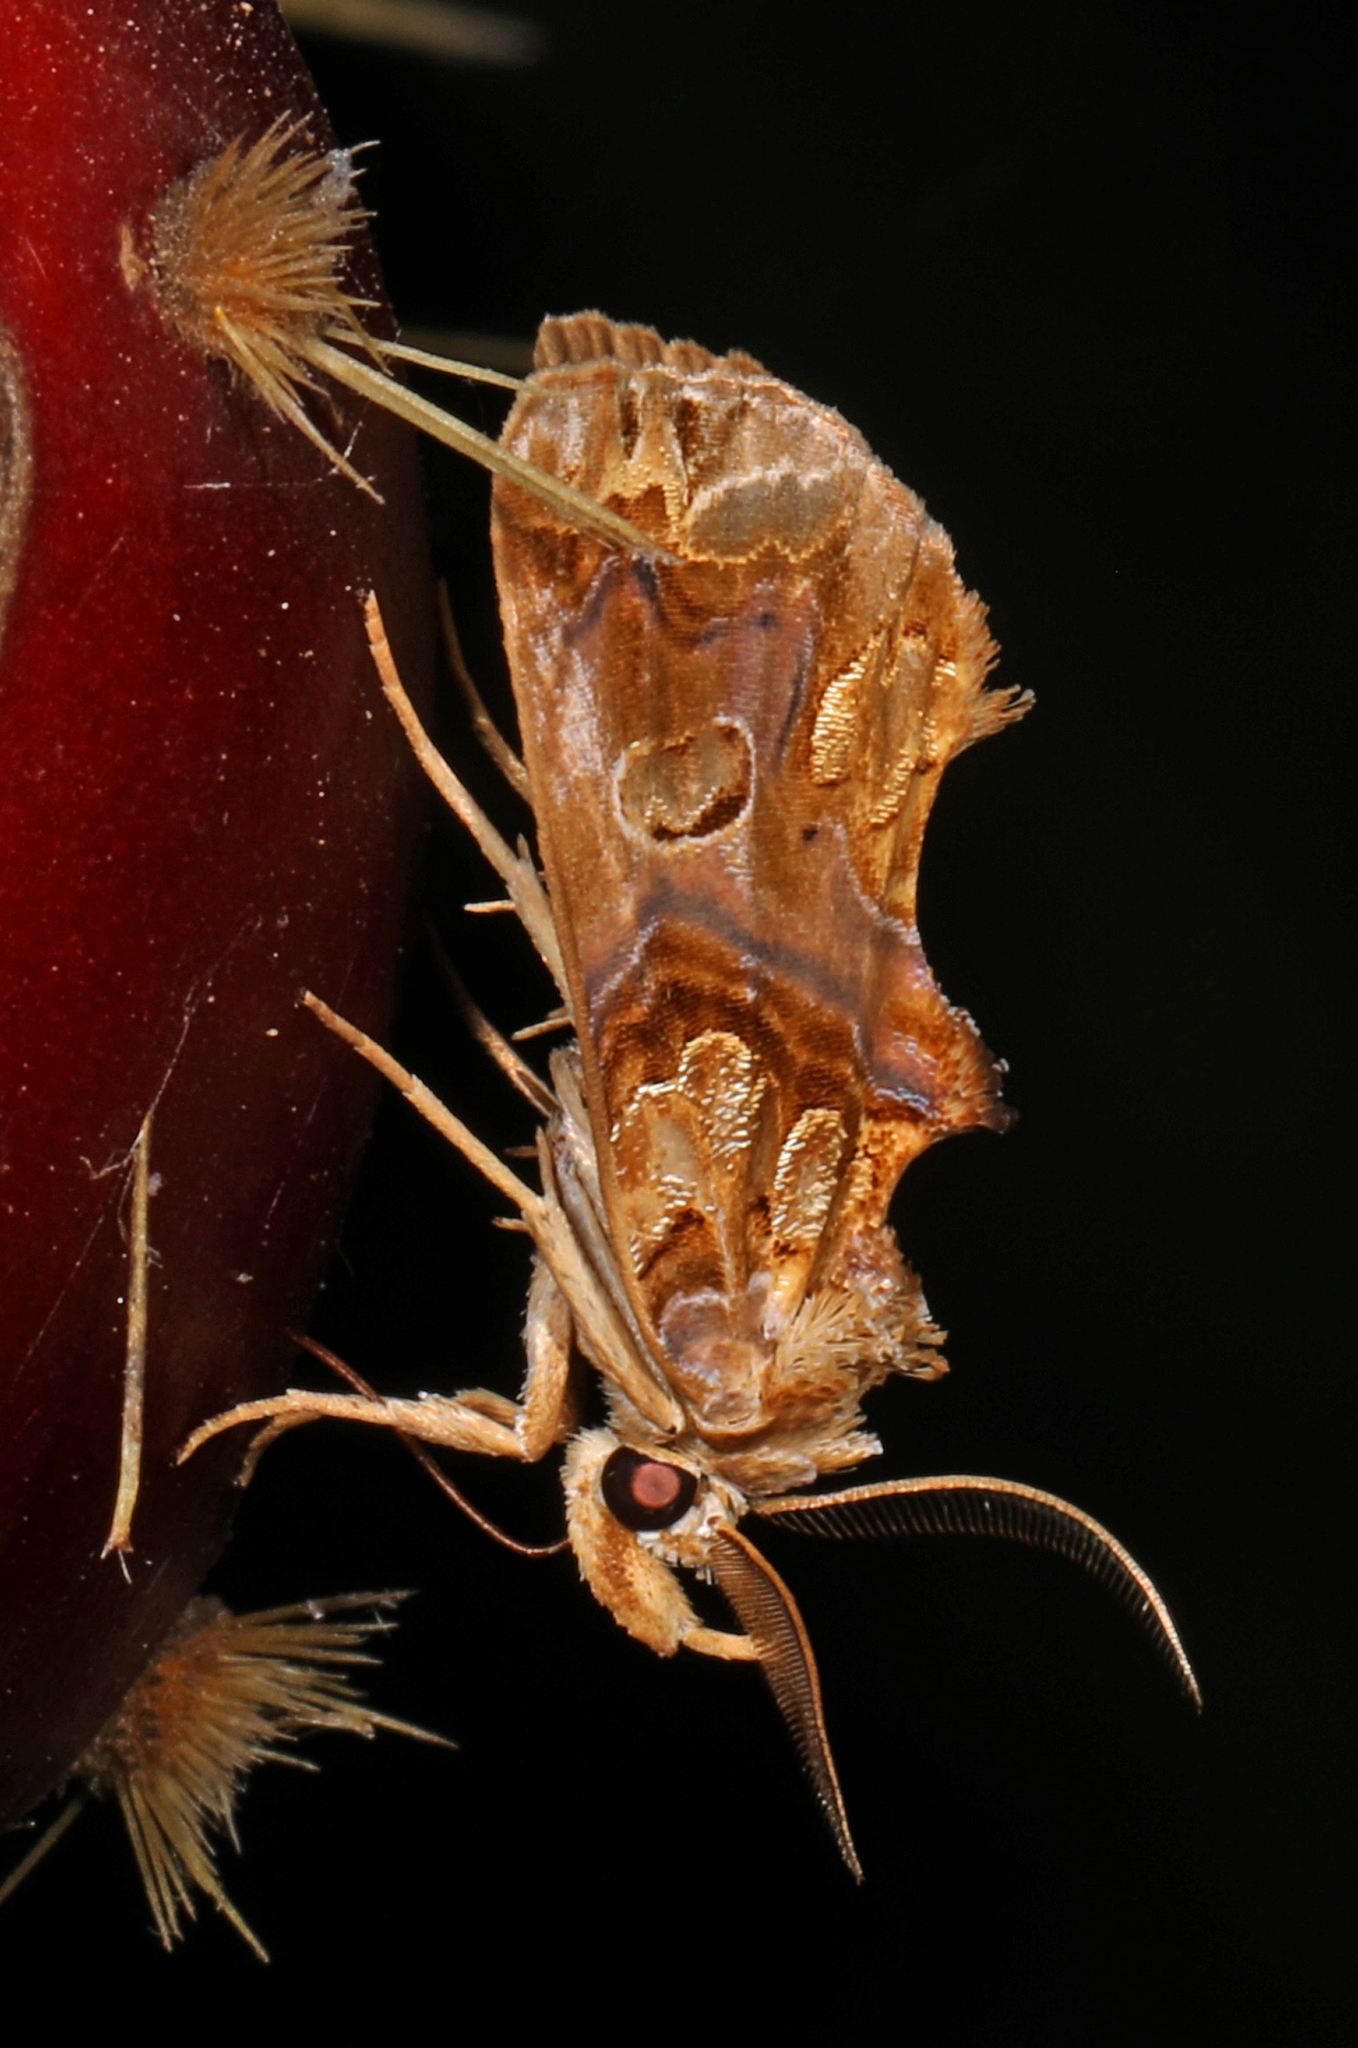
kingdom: Animalia
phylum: Arthropoda
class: Insecta
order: Lepidoptera
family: Erebidae
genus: Plusiodonta
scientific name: Plusiodonta compressipalpis
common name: Moonseed moth
